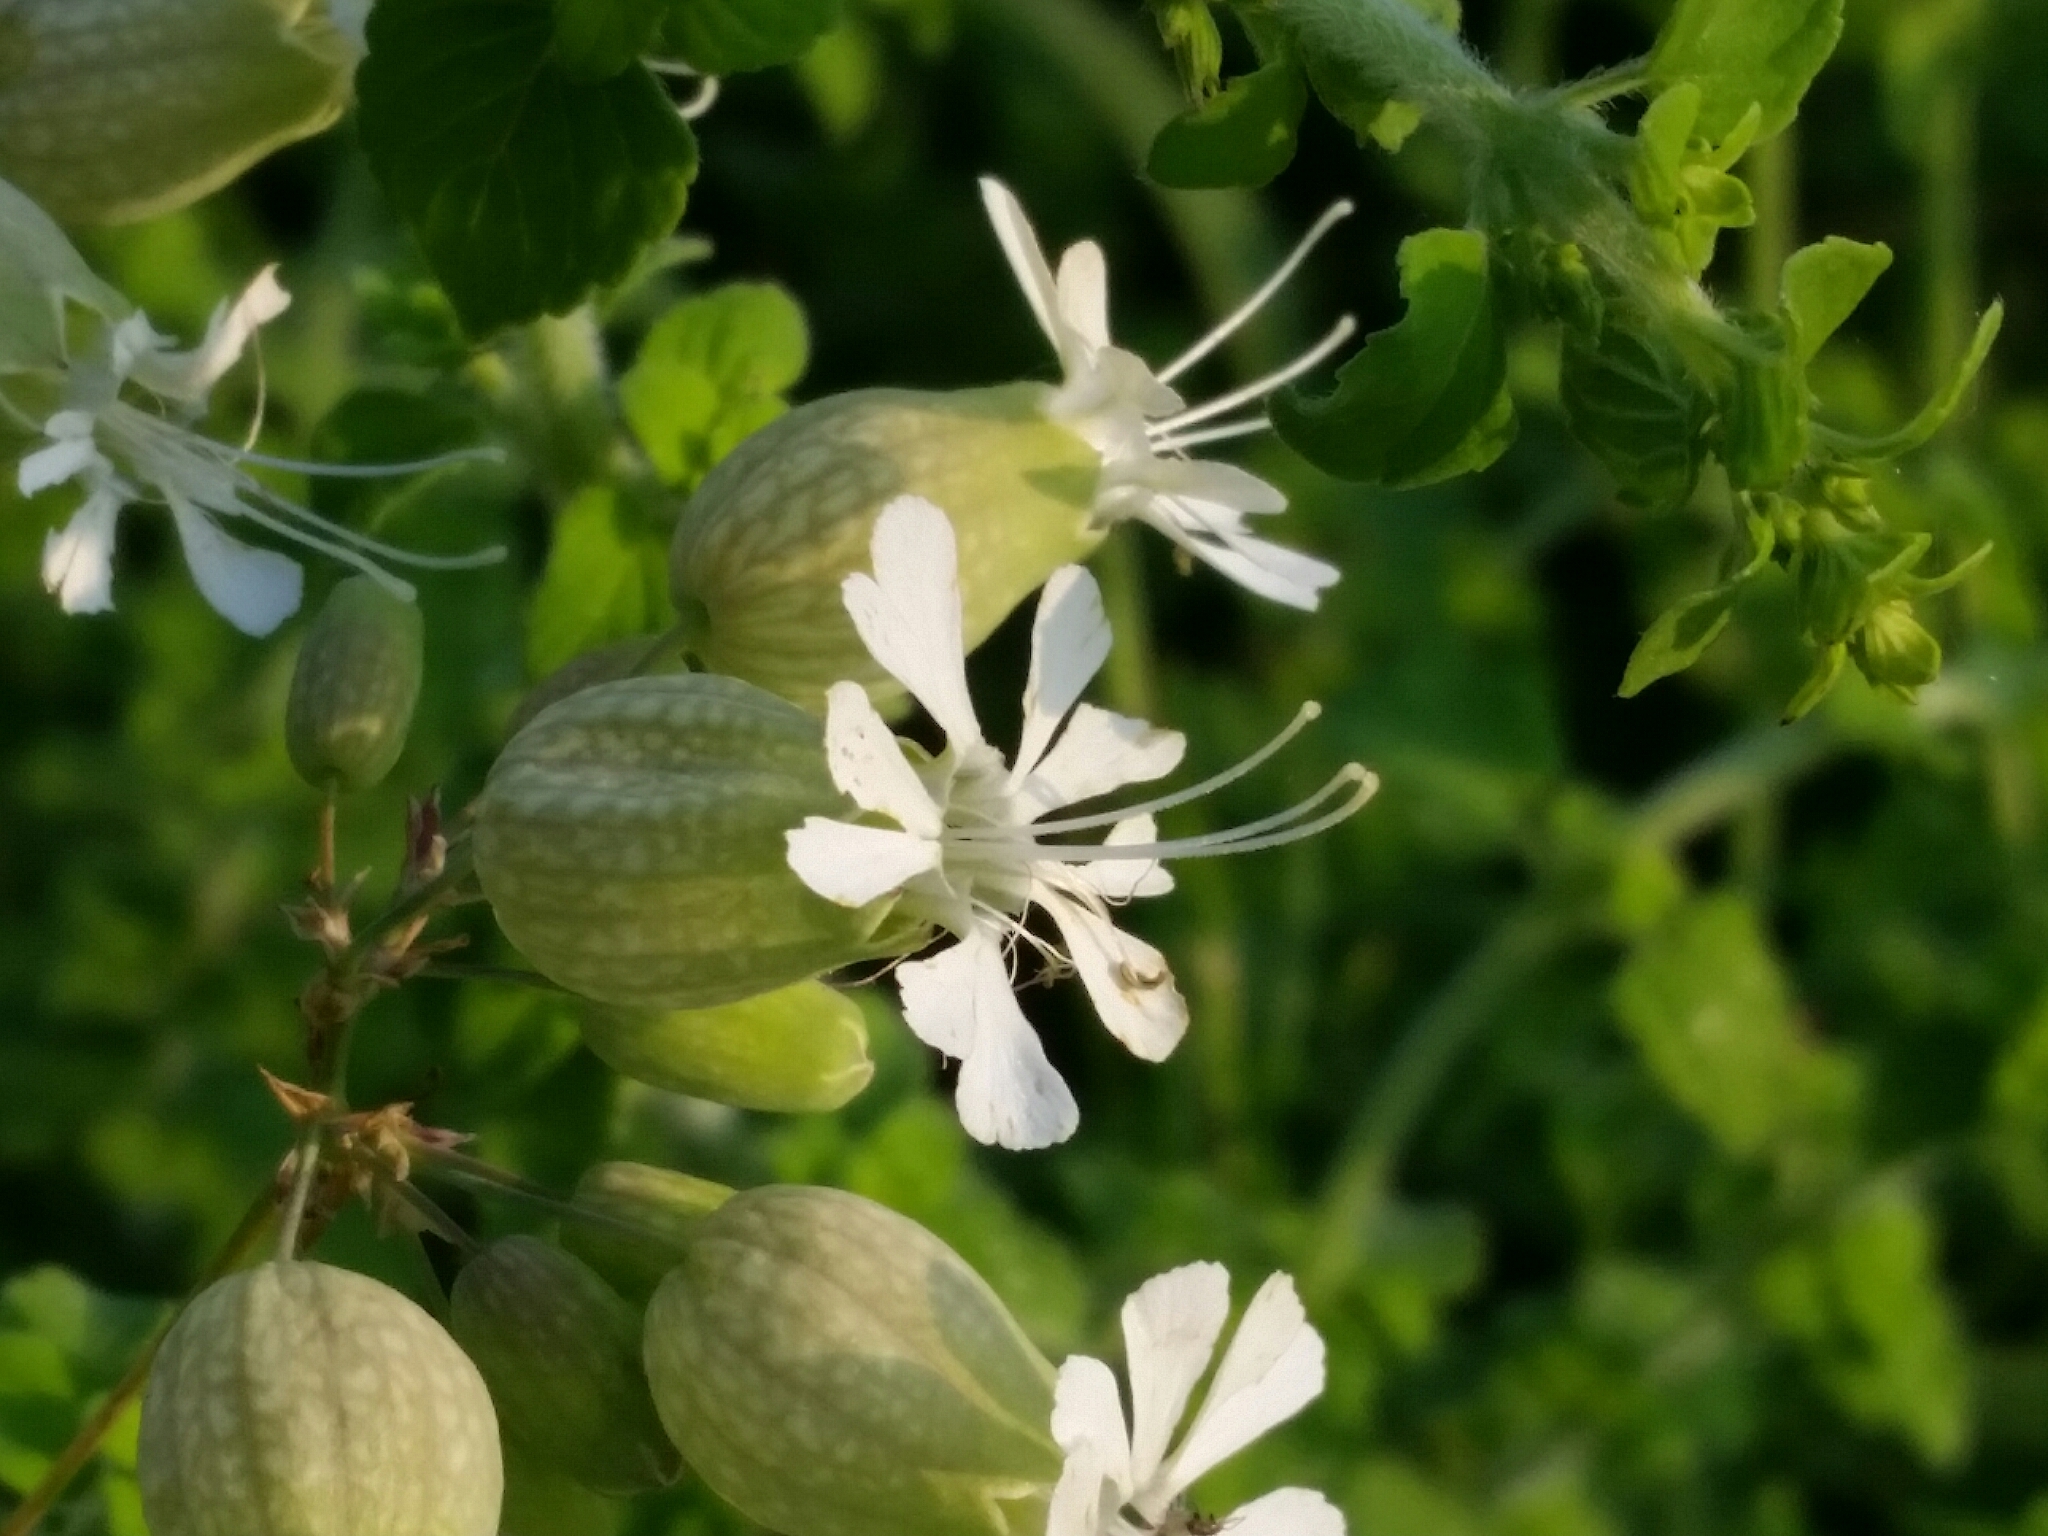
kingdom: Plantae
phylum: Tracheophyta
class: Magnoliopsida
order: Caryophyllales
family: Caryophyllaceae
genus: Silene
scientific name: Silene vulgaris
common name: Bladder campion
